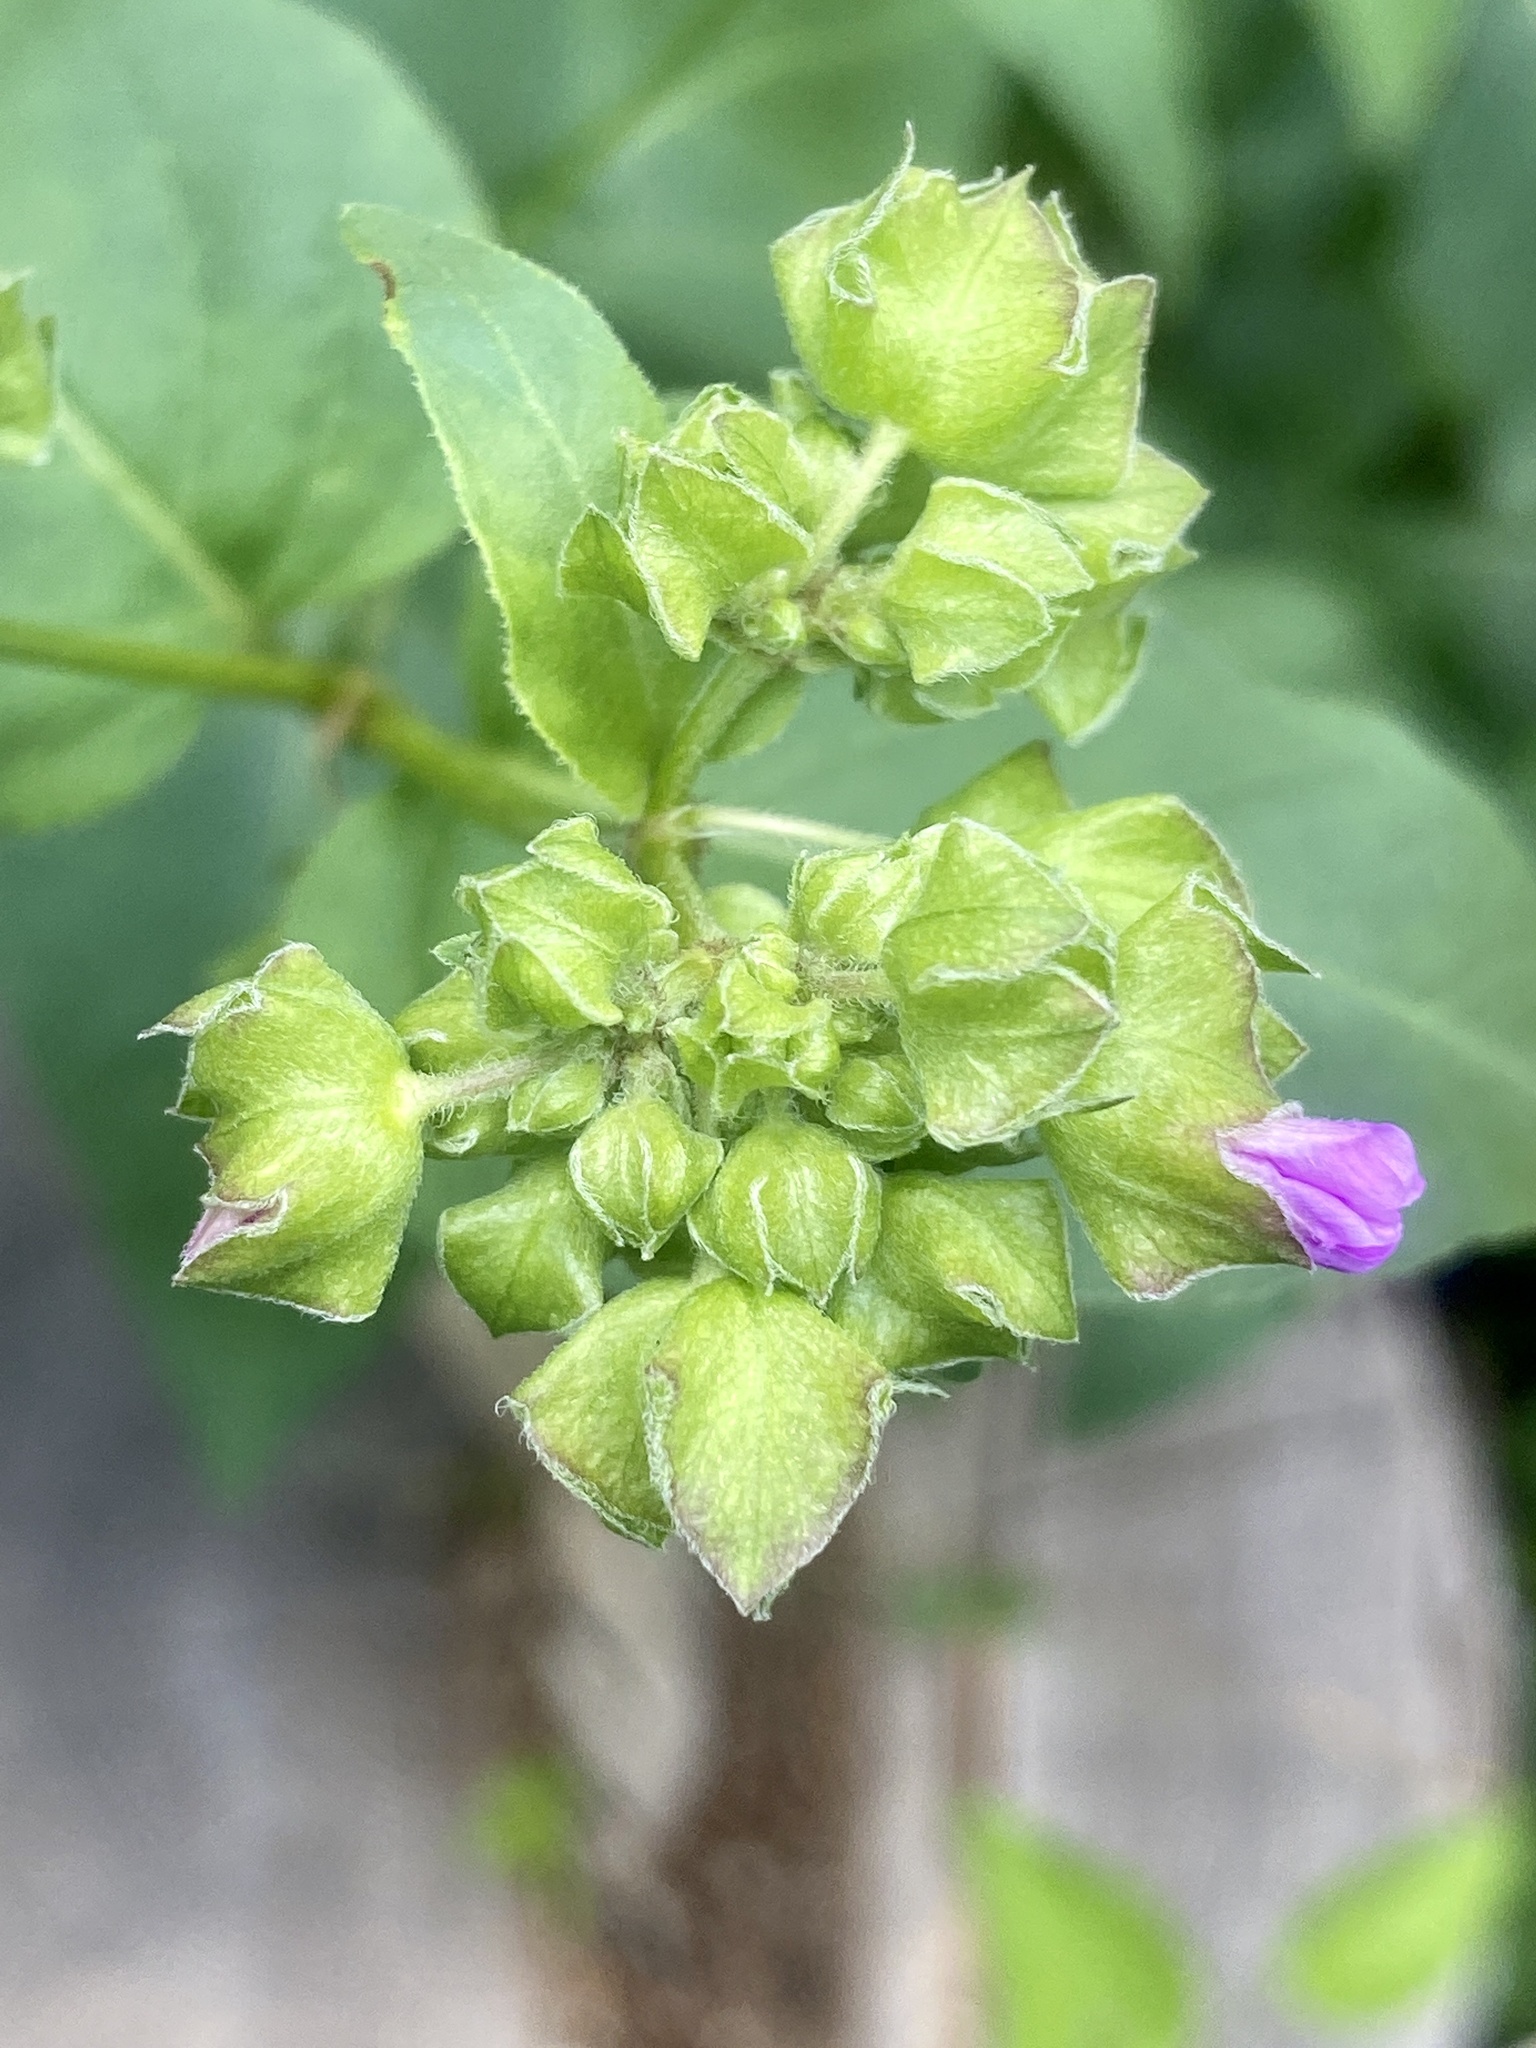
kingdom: Plantae
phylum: Tracheophyta
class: Magnoliopsida
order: Caryophyllales
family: Nyctaginaceae
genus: Mirabilis
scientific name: Mirabilis nyctaginea
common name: Umbrella wort
